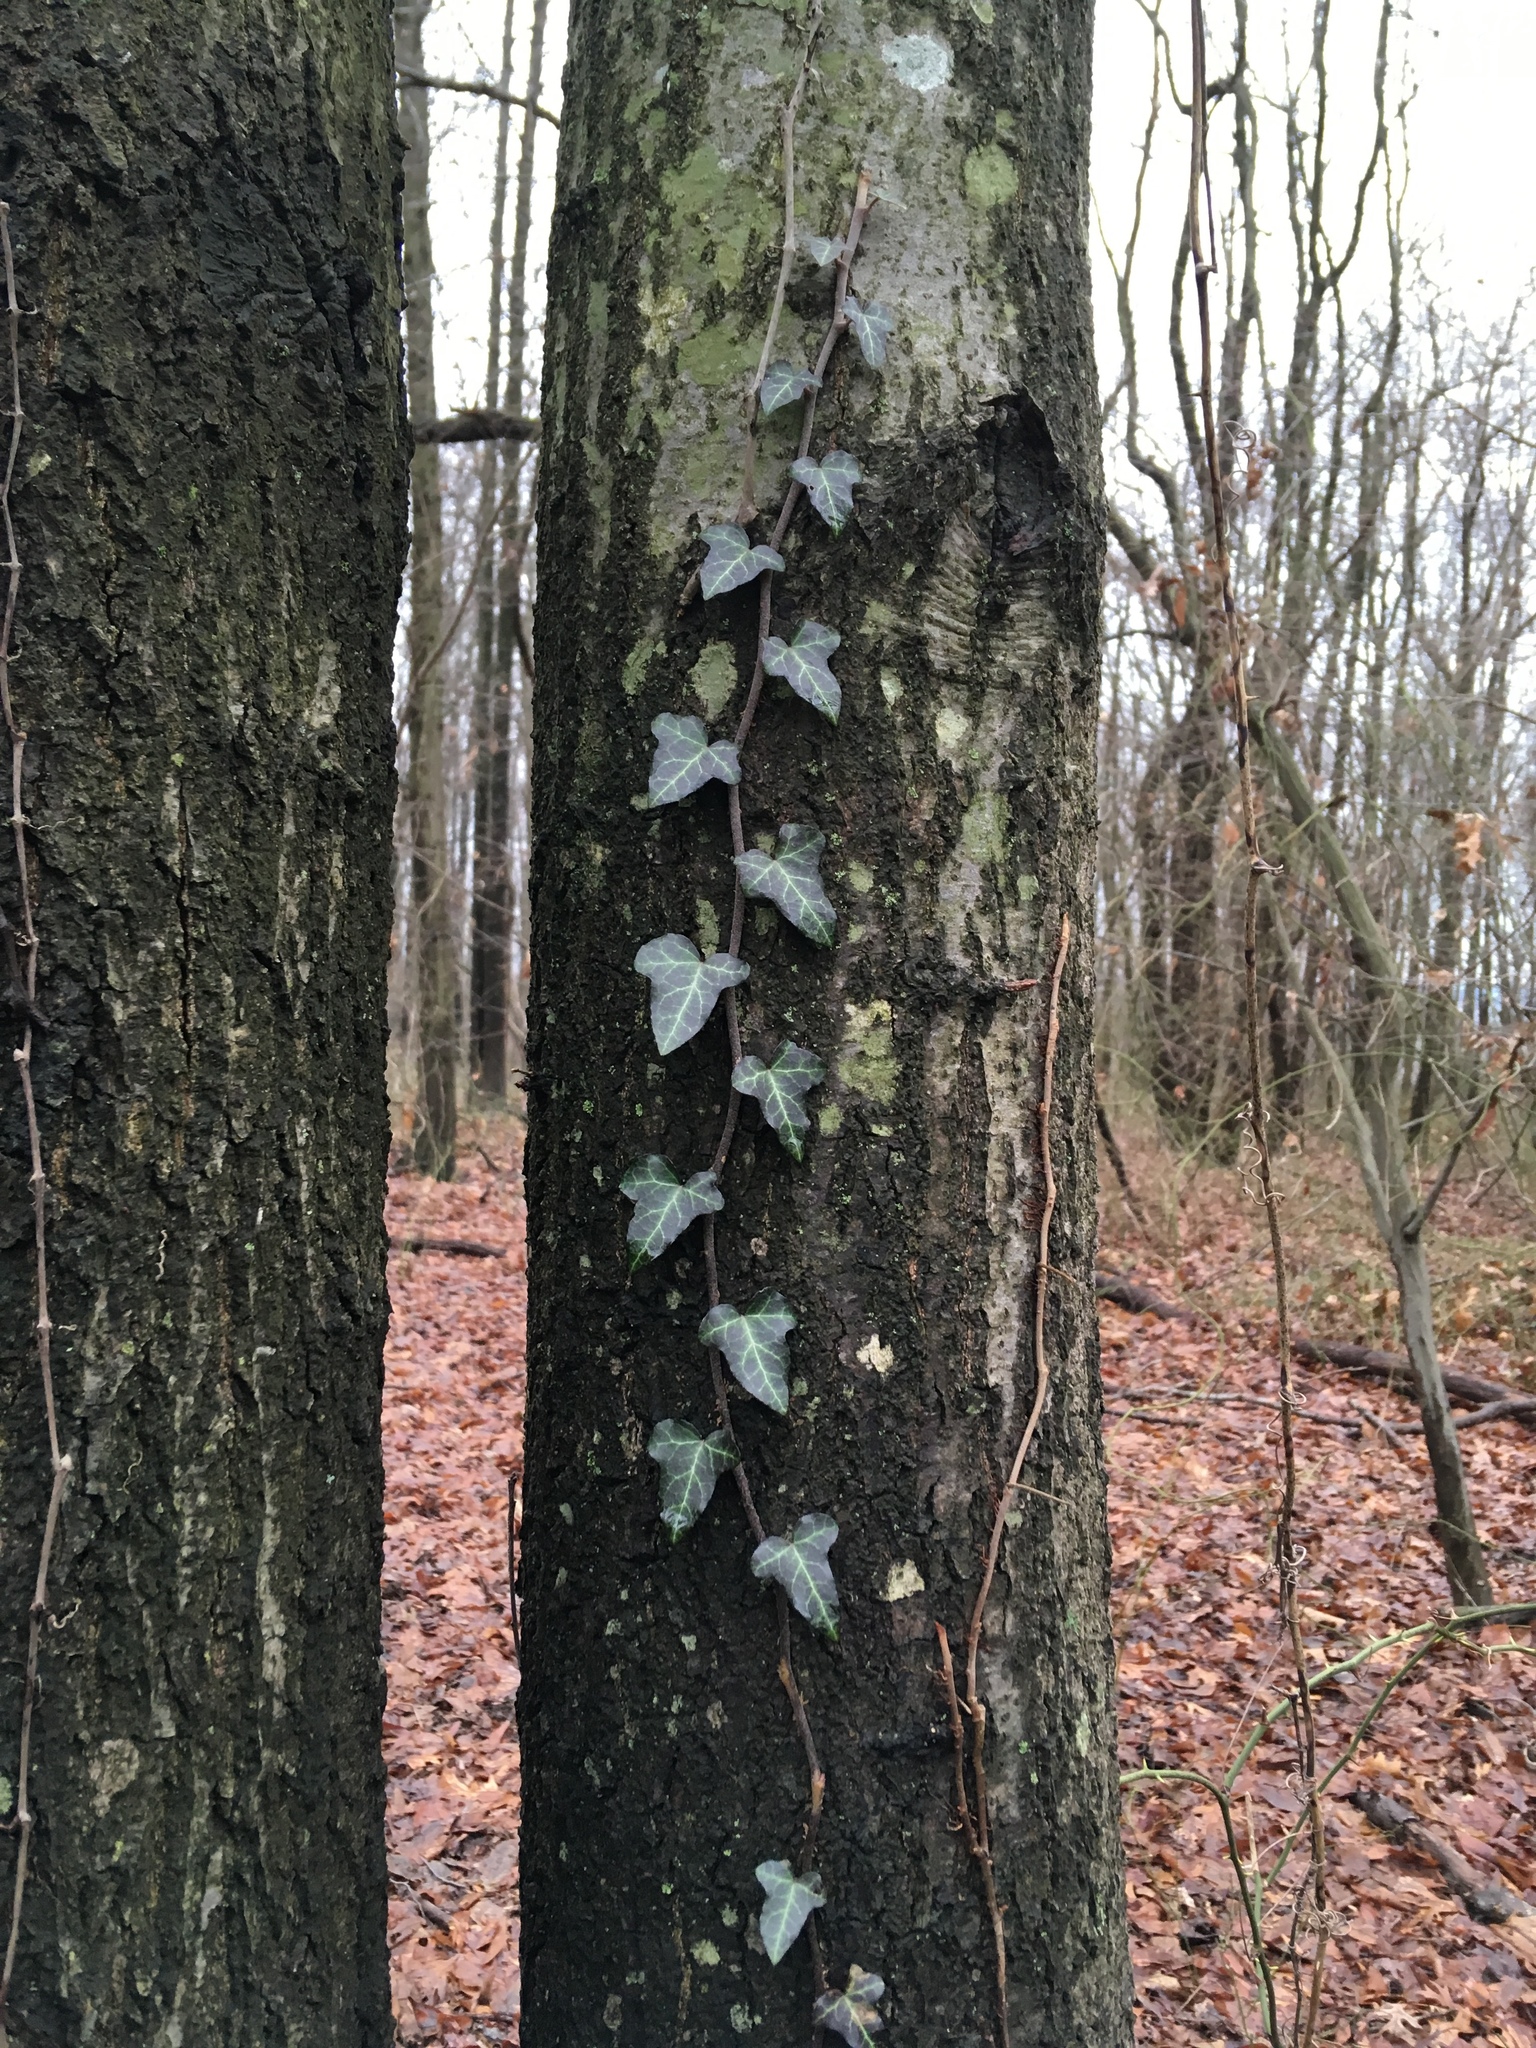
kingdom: Plantae
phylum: Tracheophyta
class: Magnoliopsida
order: Apiales
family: Araliaceae
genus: Hedera
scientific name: Hedera helix
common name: Ivy
